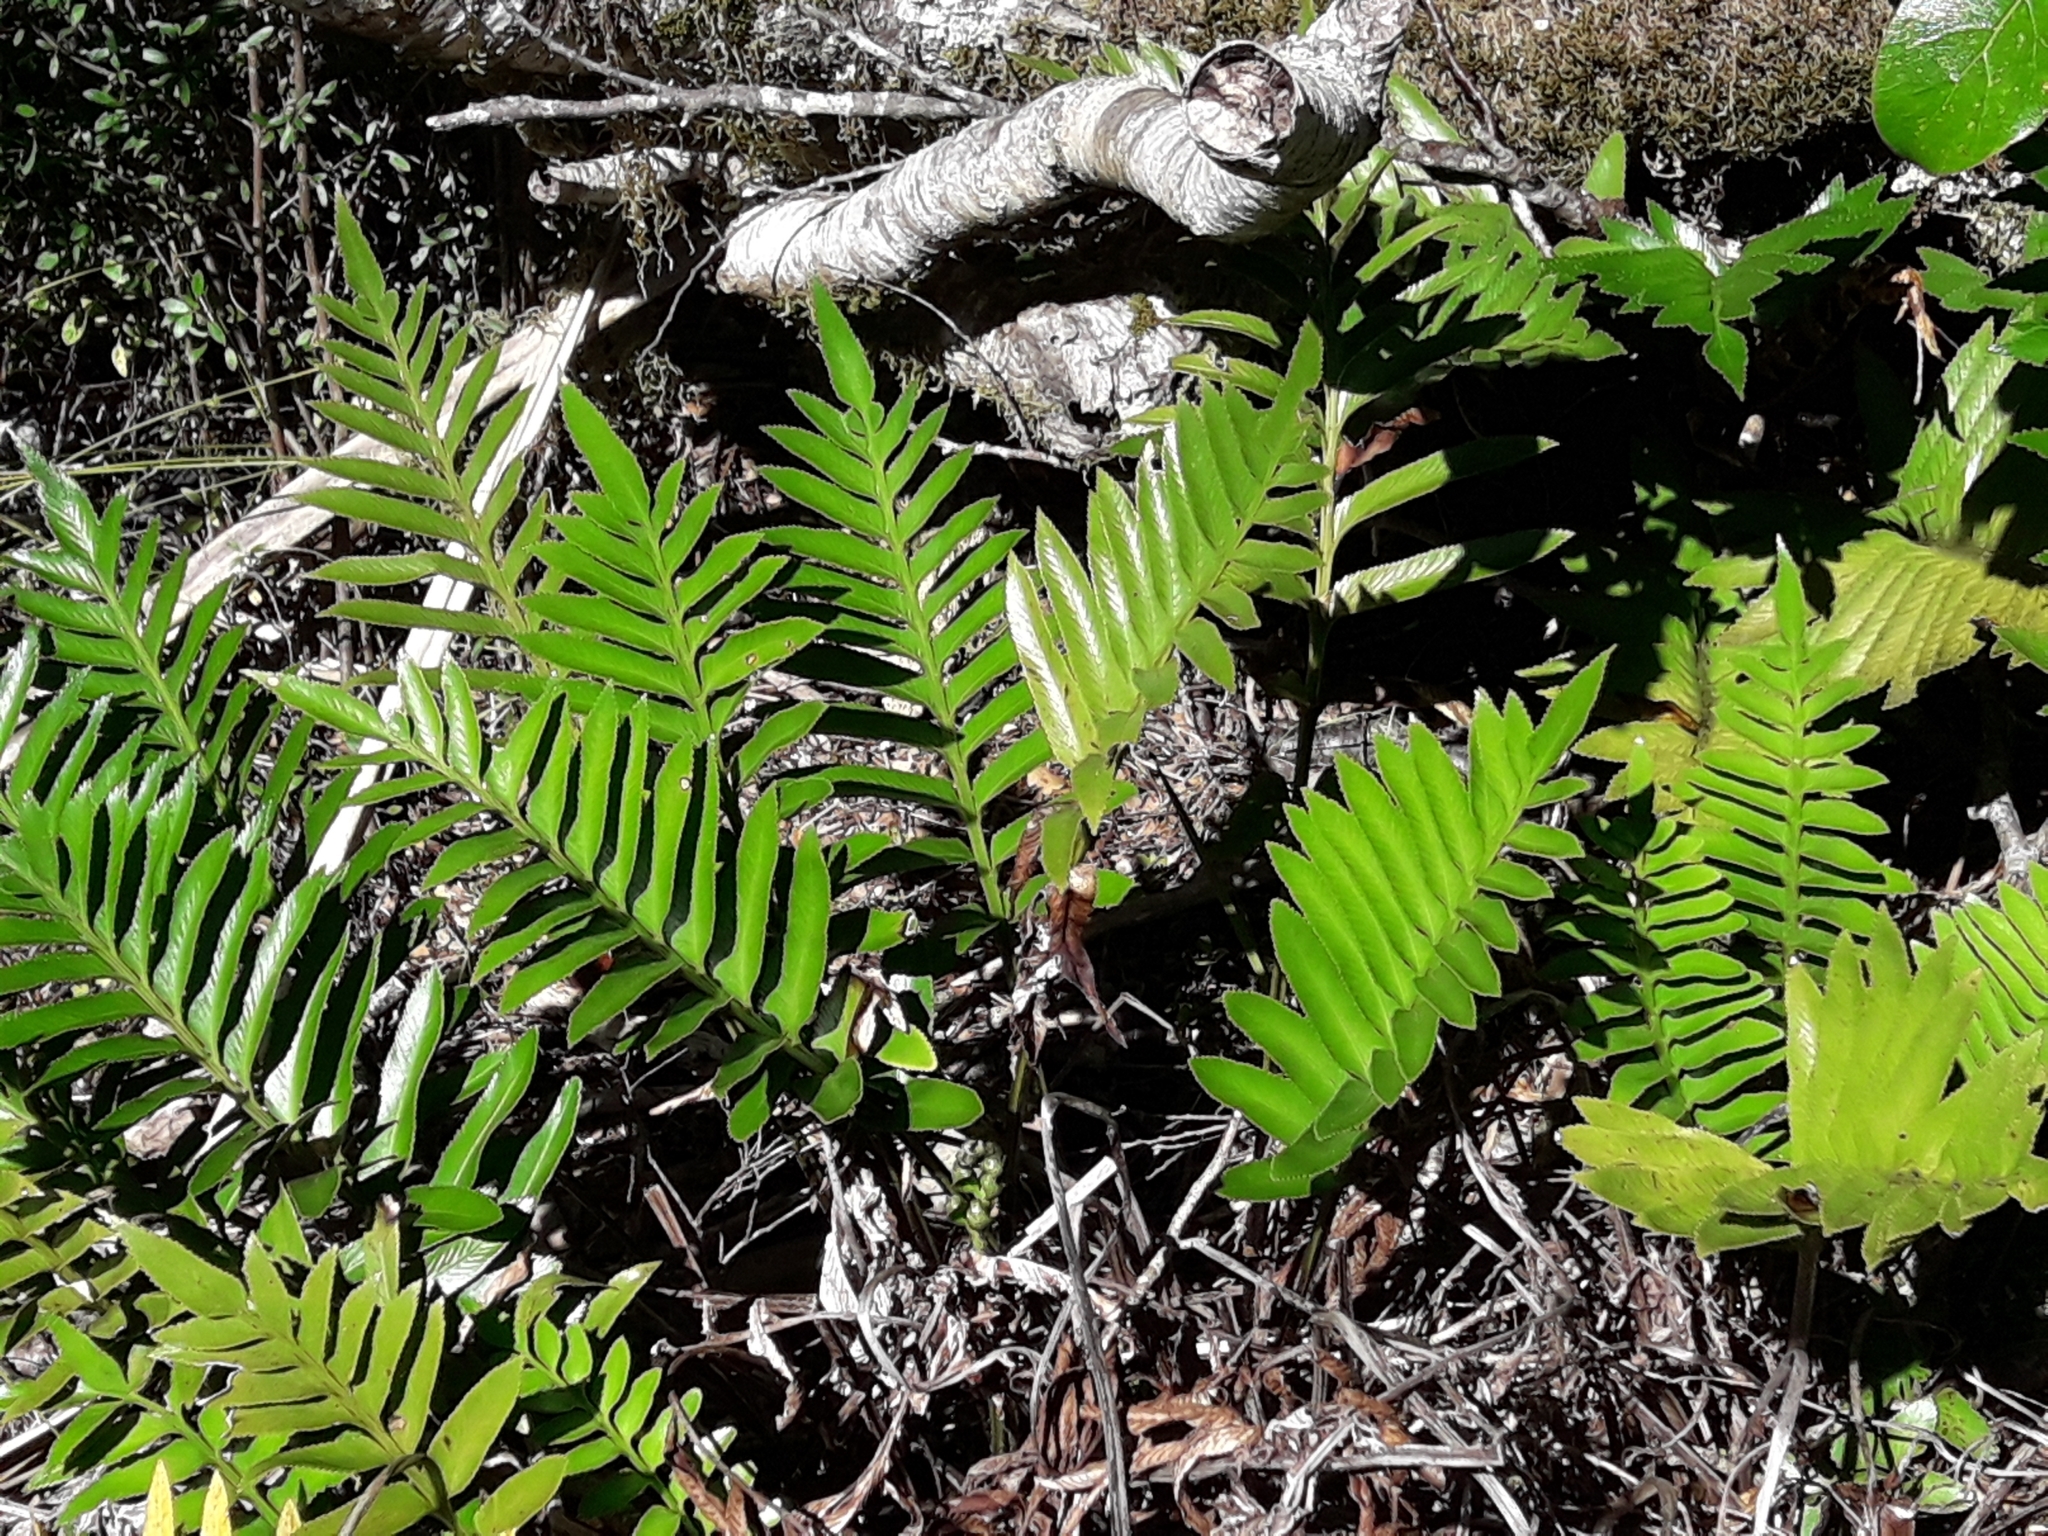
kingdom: Plantae
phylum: Tracheophyta
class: Polypodiopsida
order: Polypodiales
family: Aspleniaceae
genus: Asplenium
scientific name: Asplenium obtusatum
